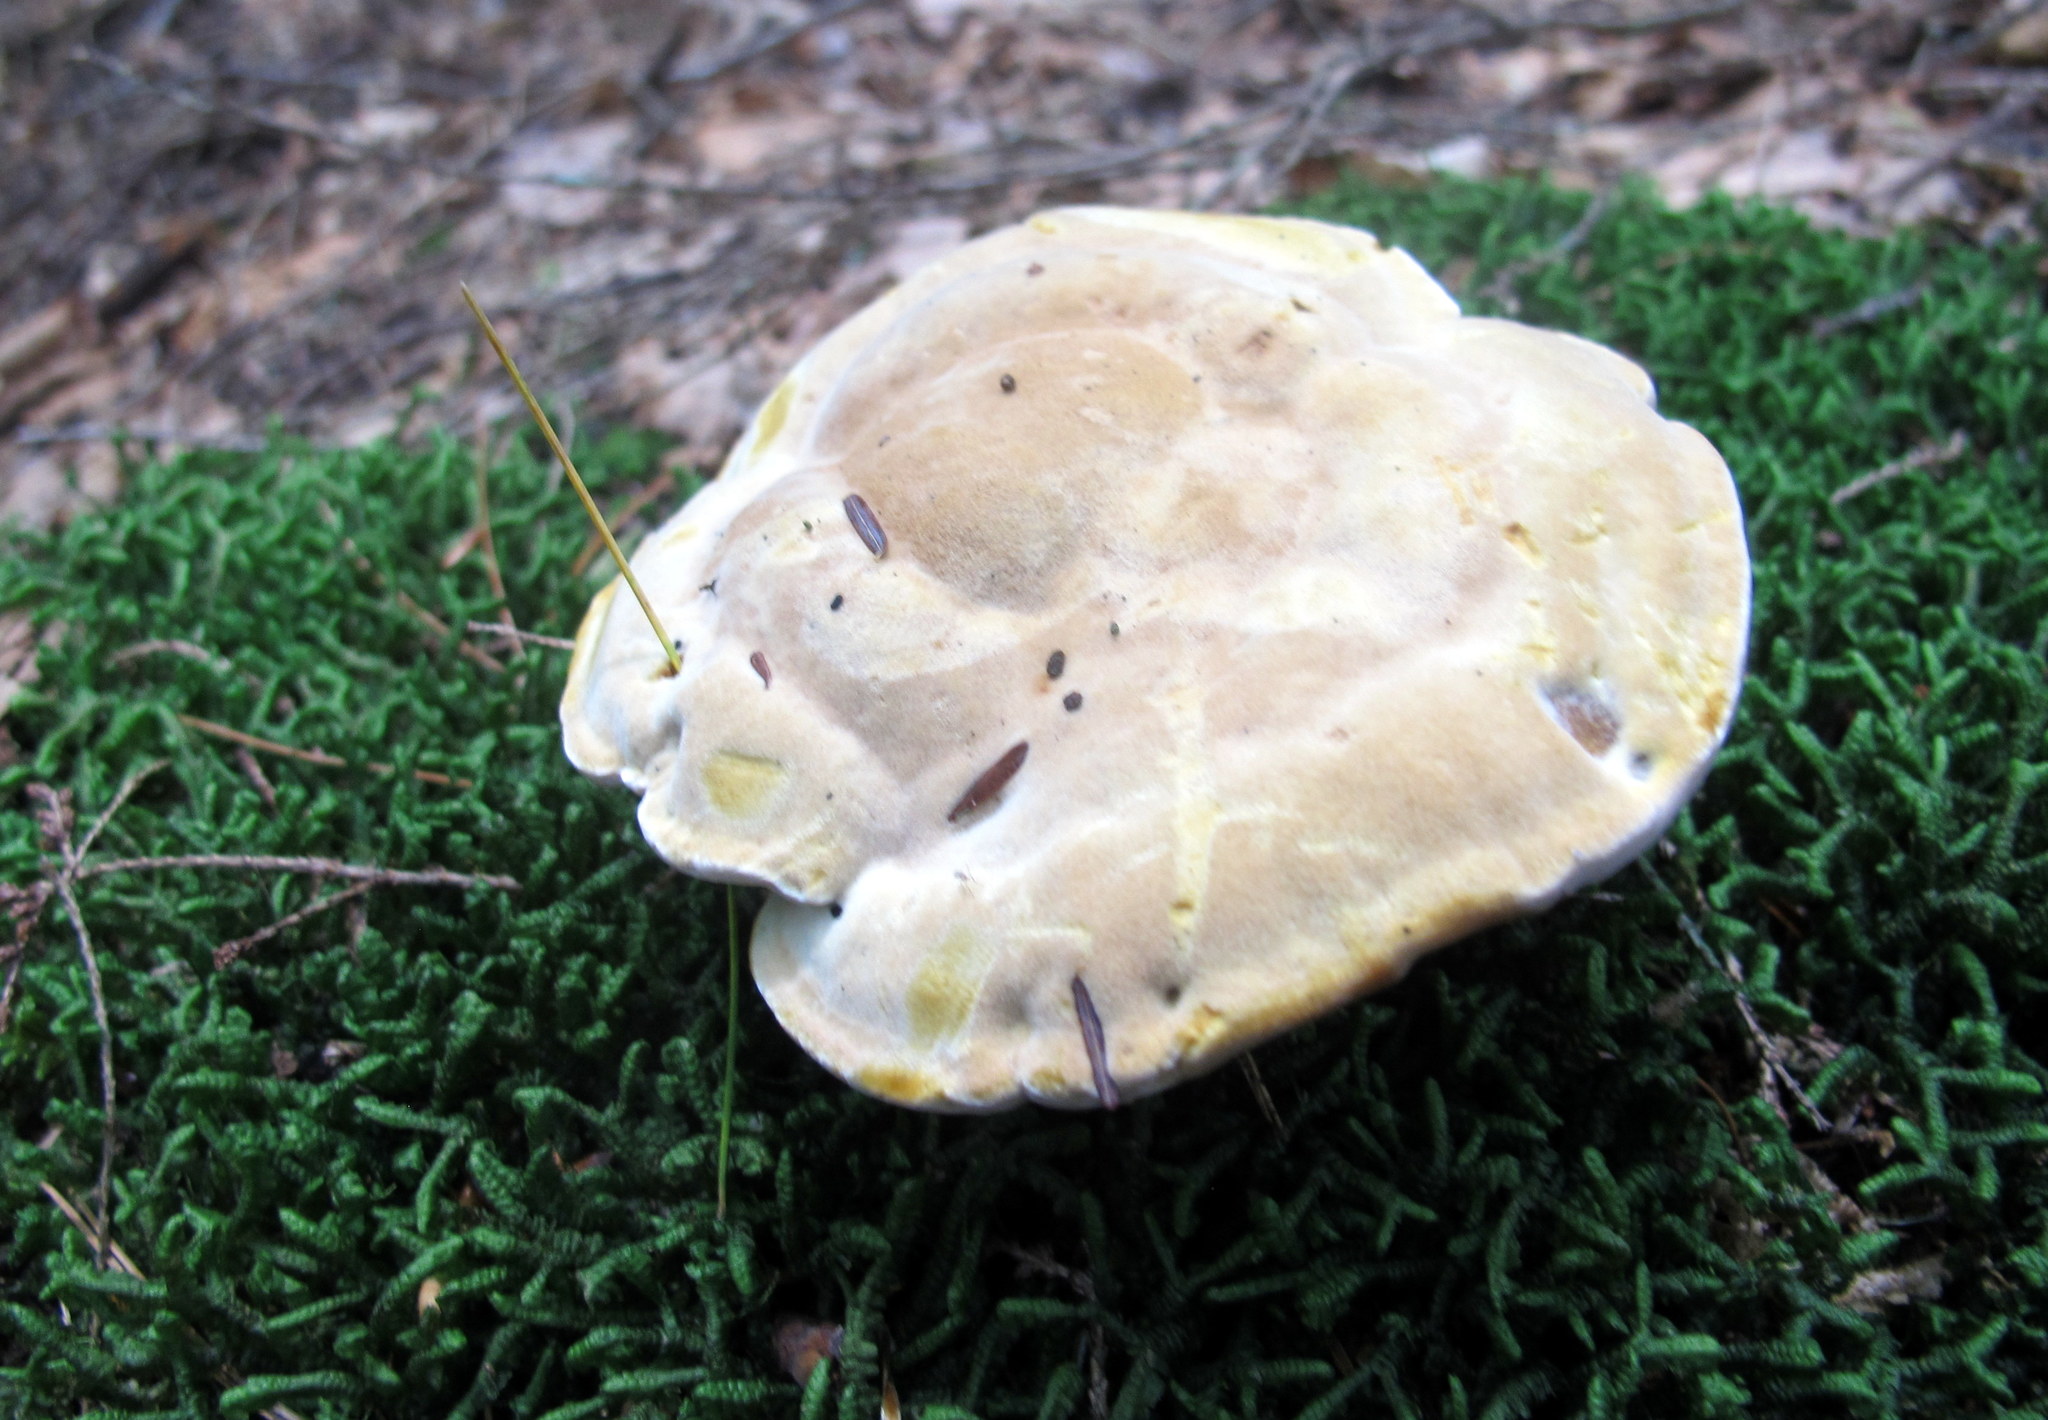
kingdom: Fungi
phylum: Basidiomycota
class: Agaricomycetes
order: Hymenochaetales
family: Hymenochaetaceae
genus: Onnia
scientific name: Onnia tomentosa
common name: Velvet rosette
